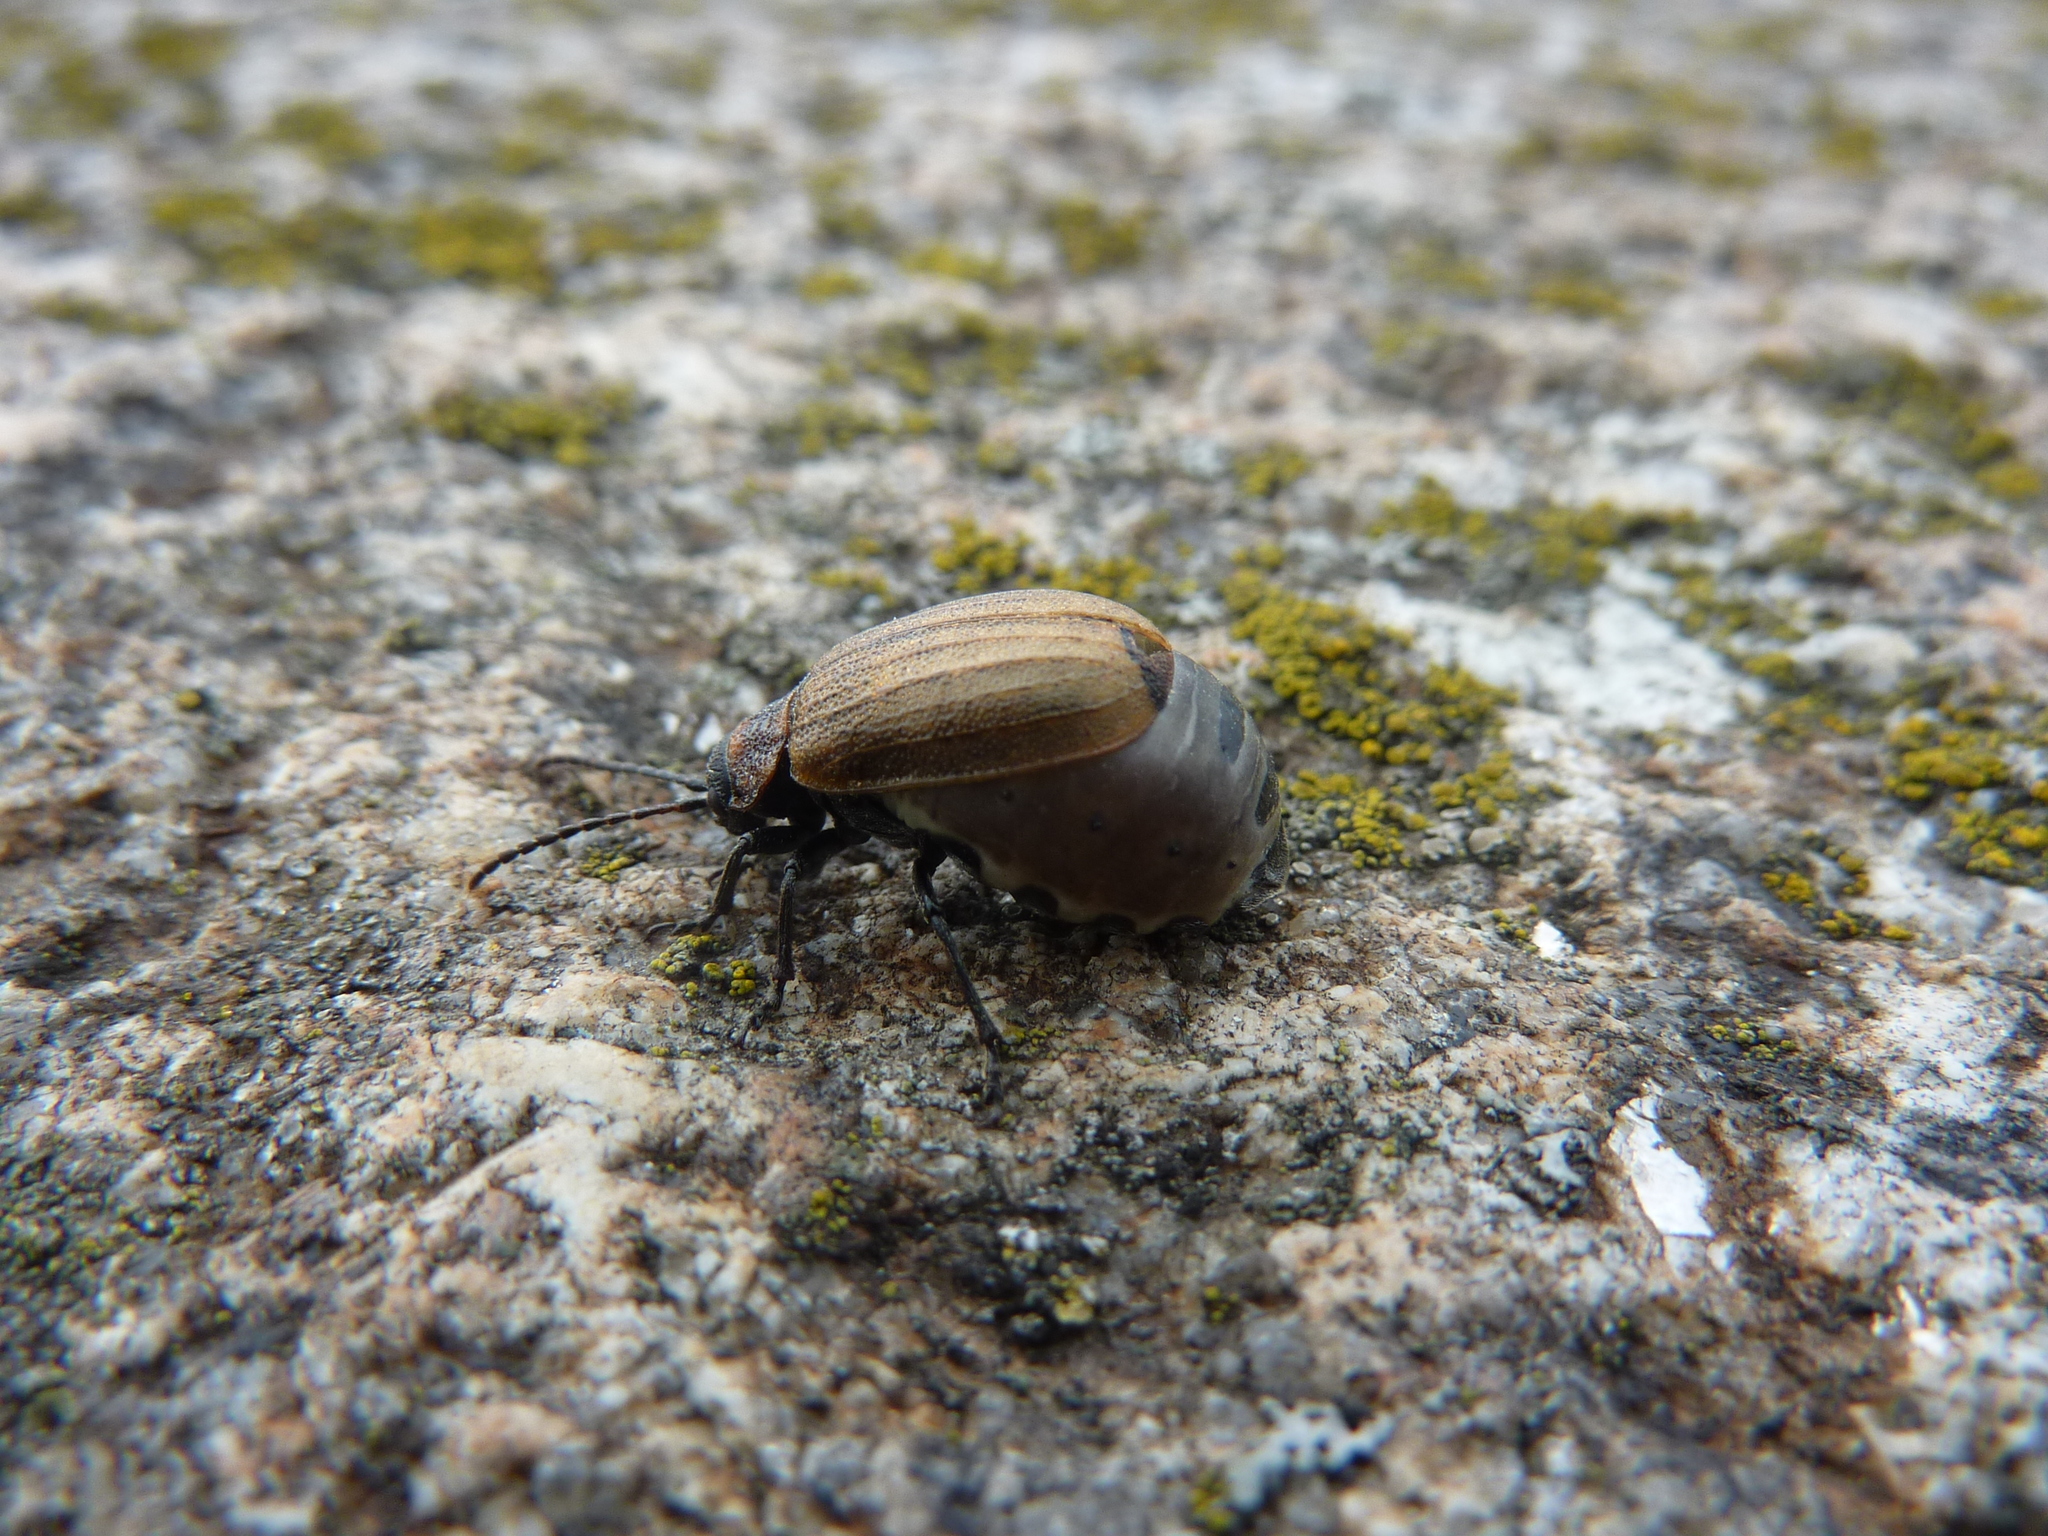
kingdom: Animalia
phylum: Arthropoda
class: Insecta
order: Coleoptera
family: Chrysomelidae
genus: Galeruca
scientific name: Galeruca pomonae
